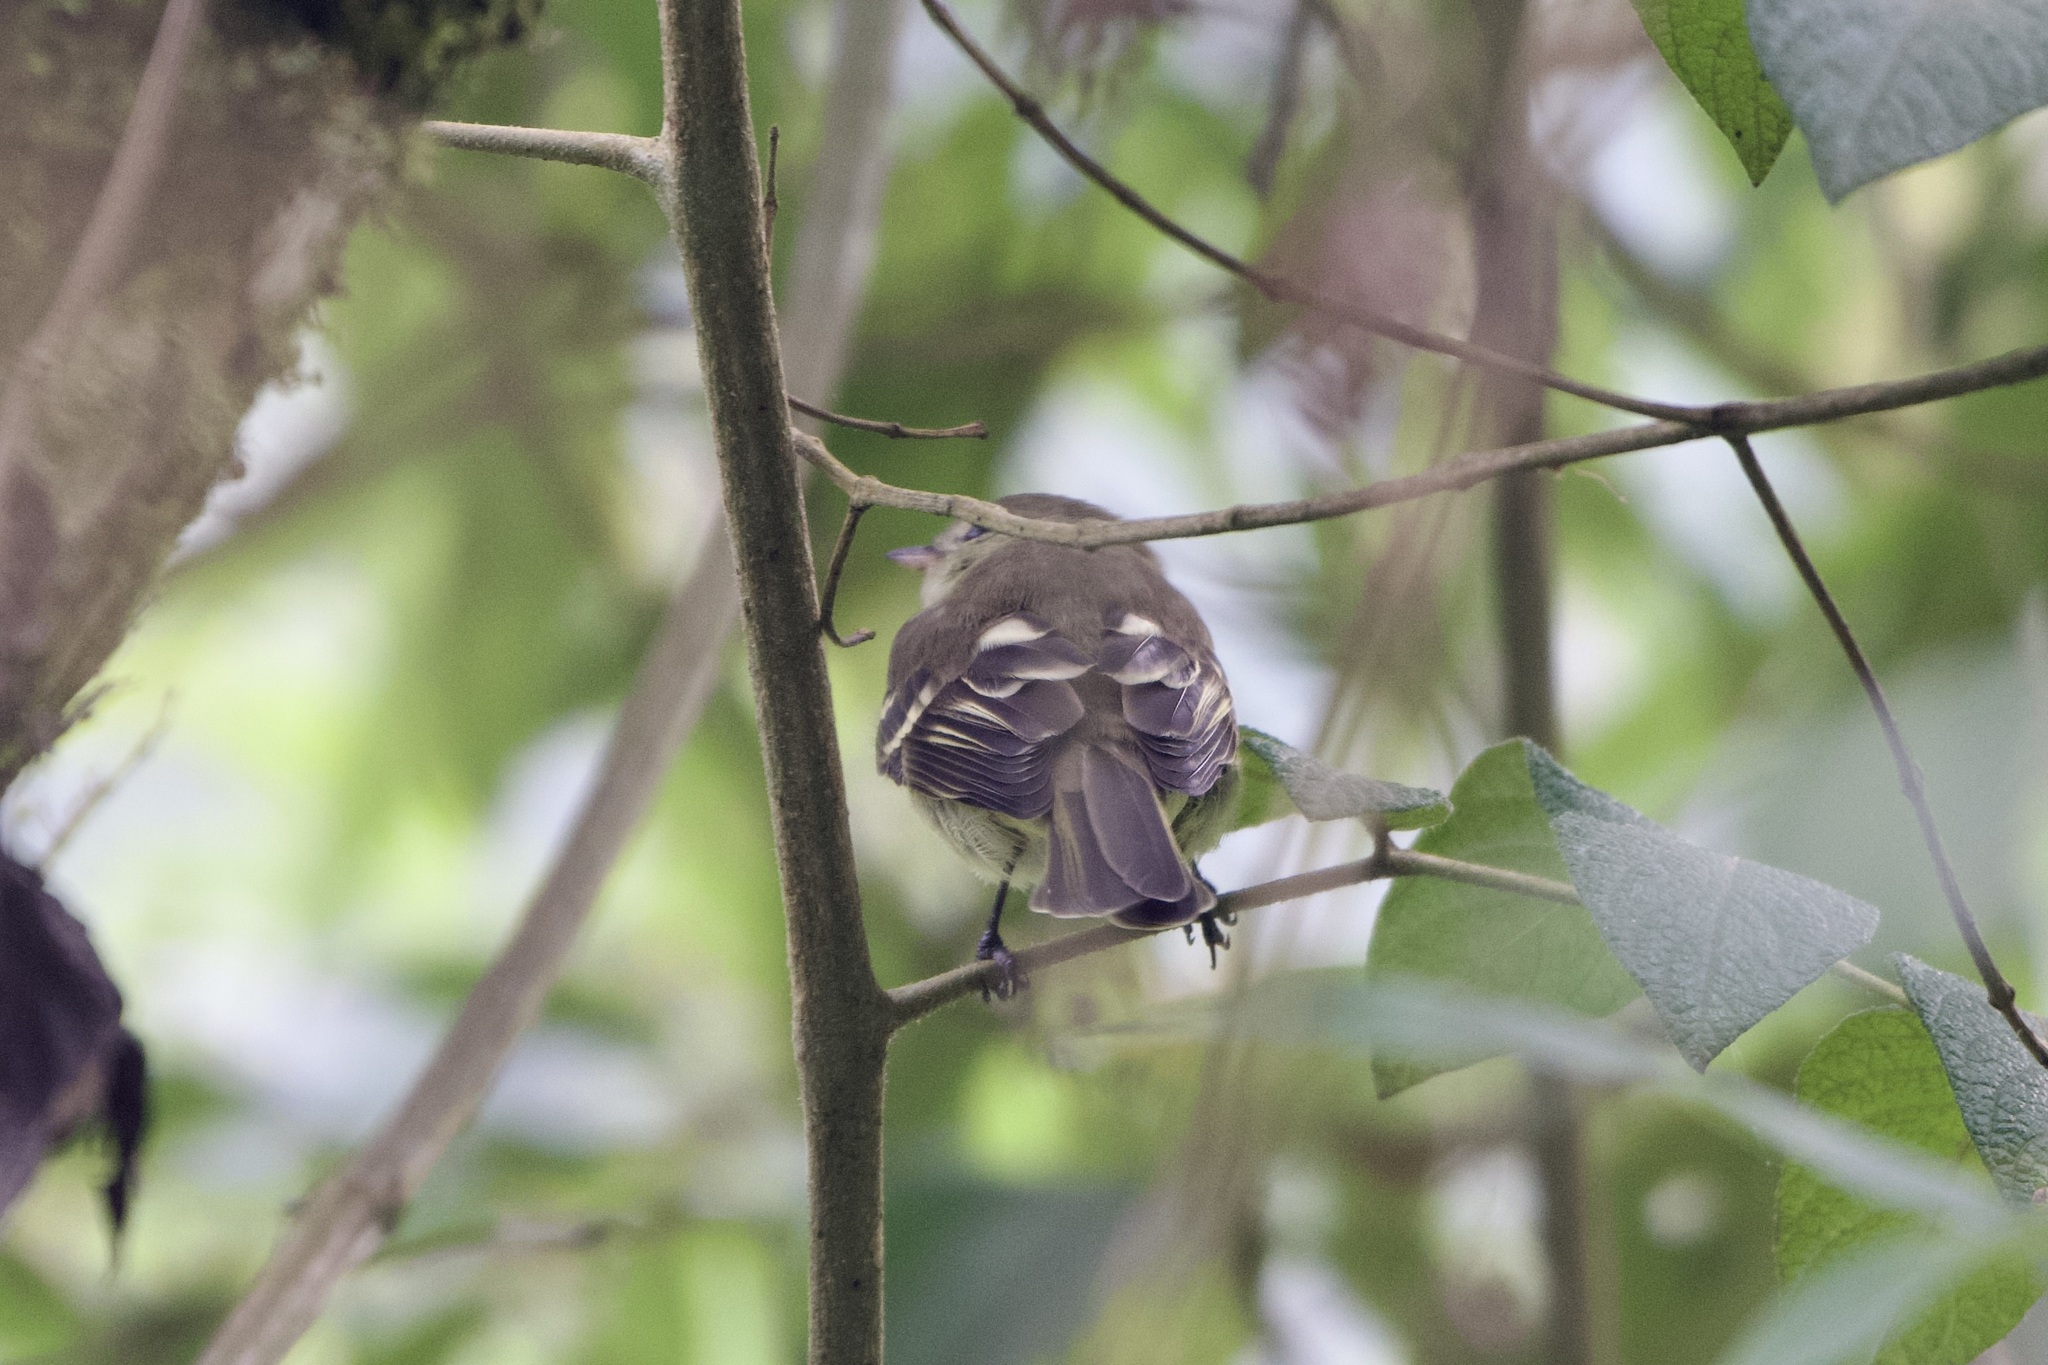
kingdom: Animalia
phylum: Chordata
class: Aves
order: Passeriformes
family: Tyrannidae
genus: Elaenia
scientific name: Elaenia frantzii
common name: Mountain elaenia
